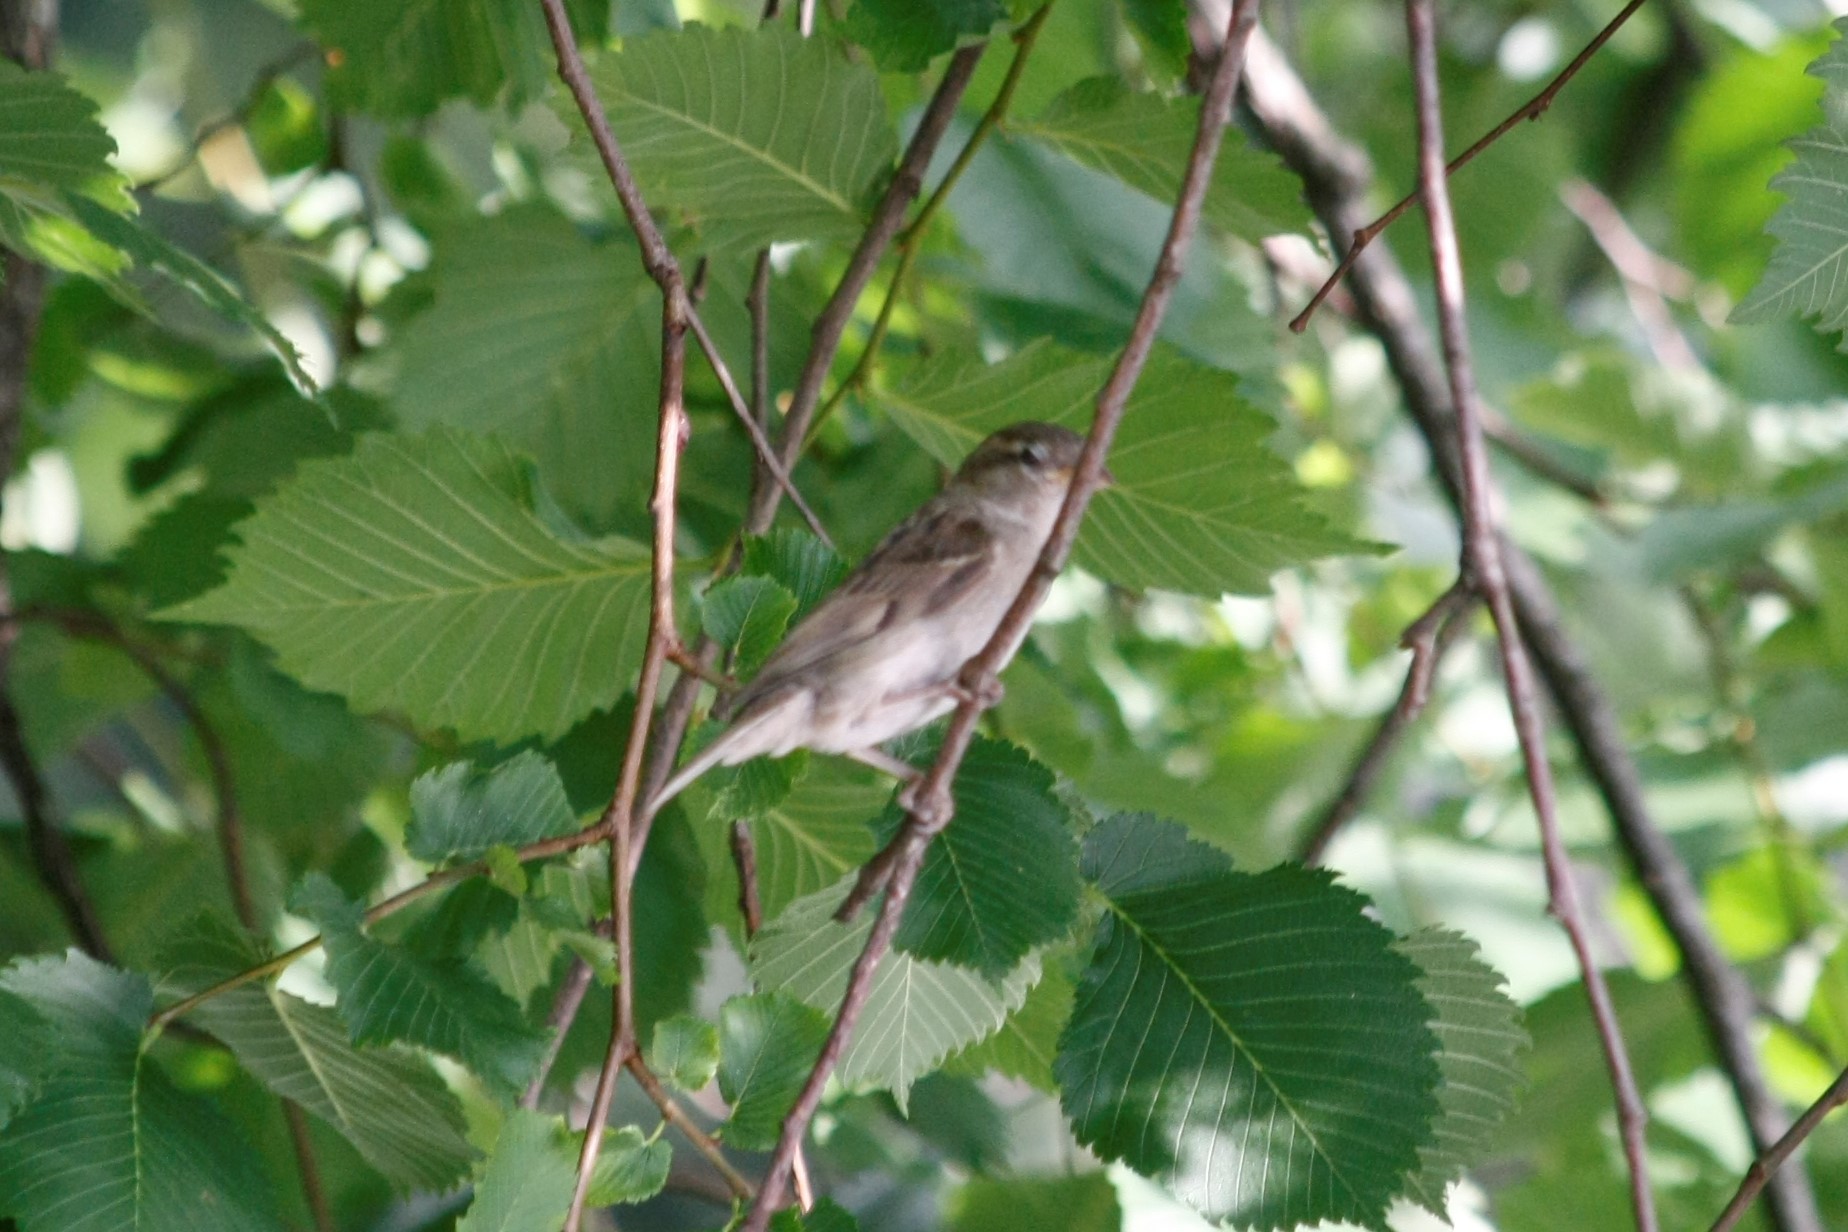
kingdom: Animalia
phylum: Chordata
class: Aves
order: Passeriformes
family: Passeridae
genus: Passer
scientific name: Passer domesticus
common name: House sparrow
